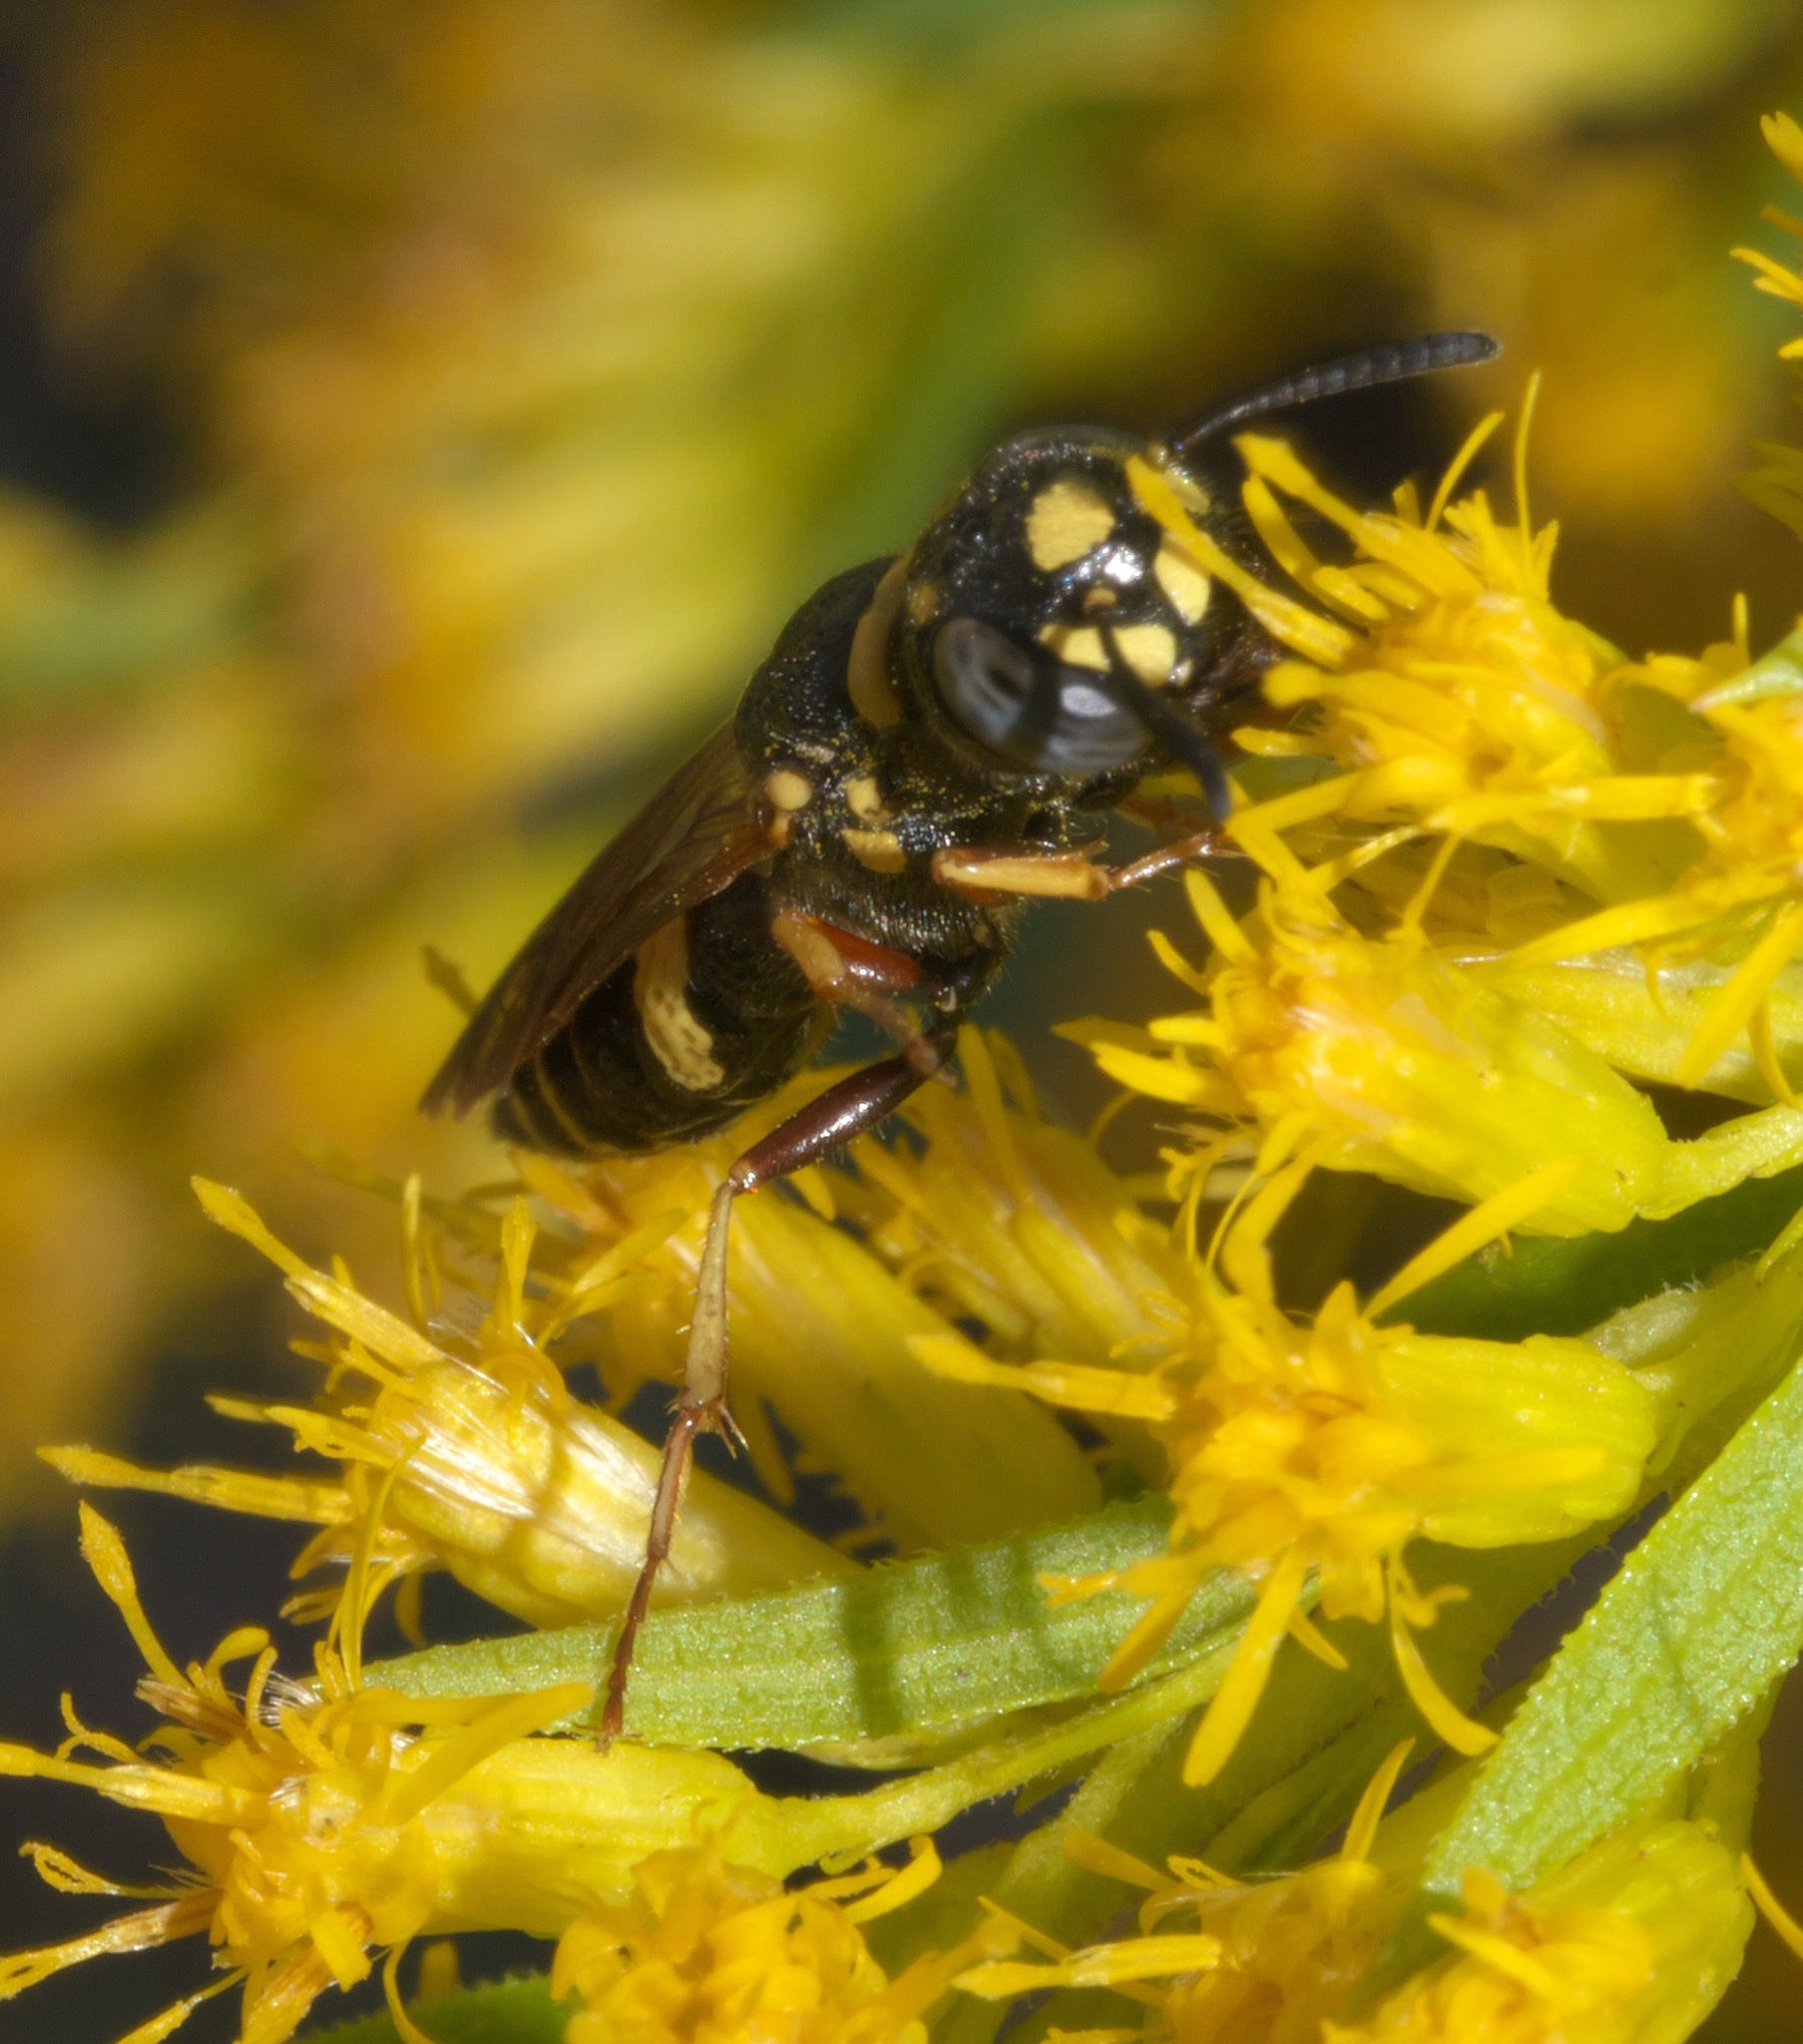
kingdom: Animalia
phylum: Arthropoda
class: Insecta
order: Hymenoptera
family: Crabronidae
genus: Philanthus
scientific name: Philanthus gibbosus
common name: Humped beewolf
